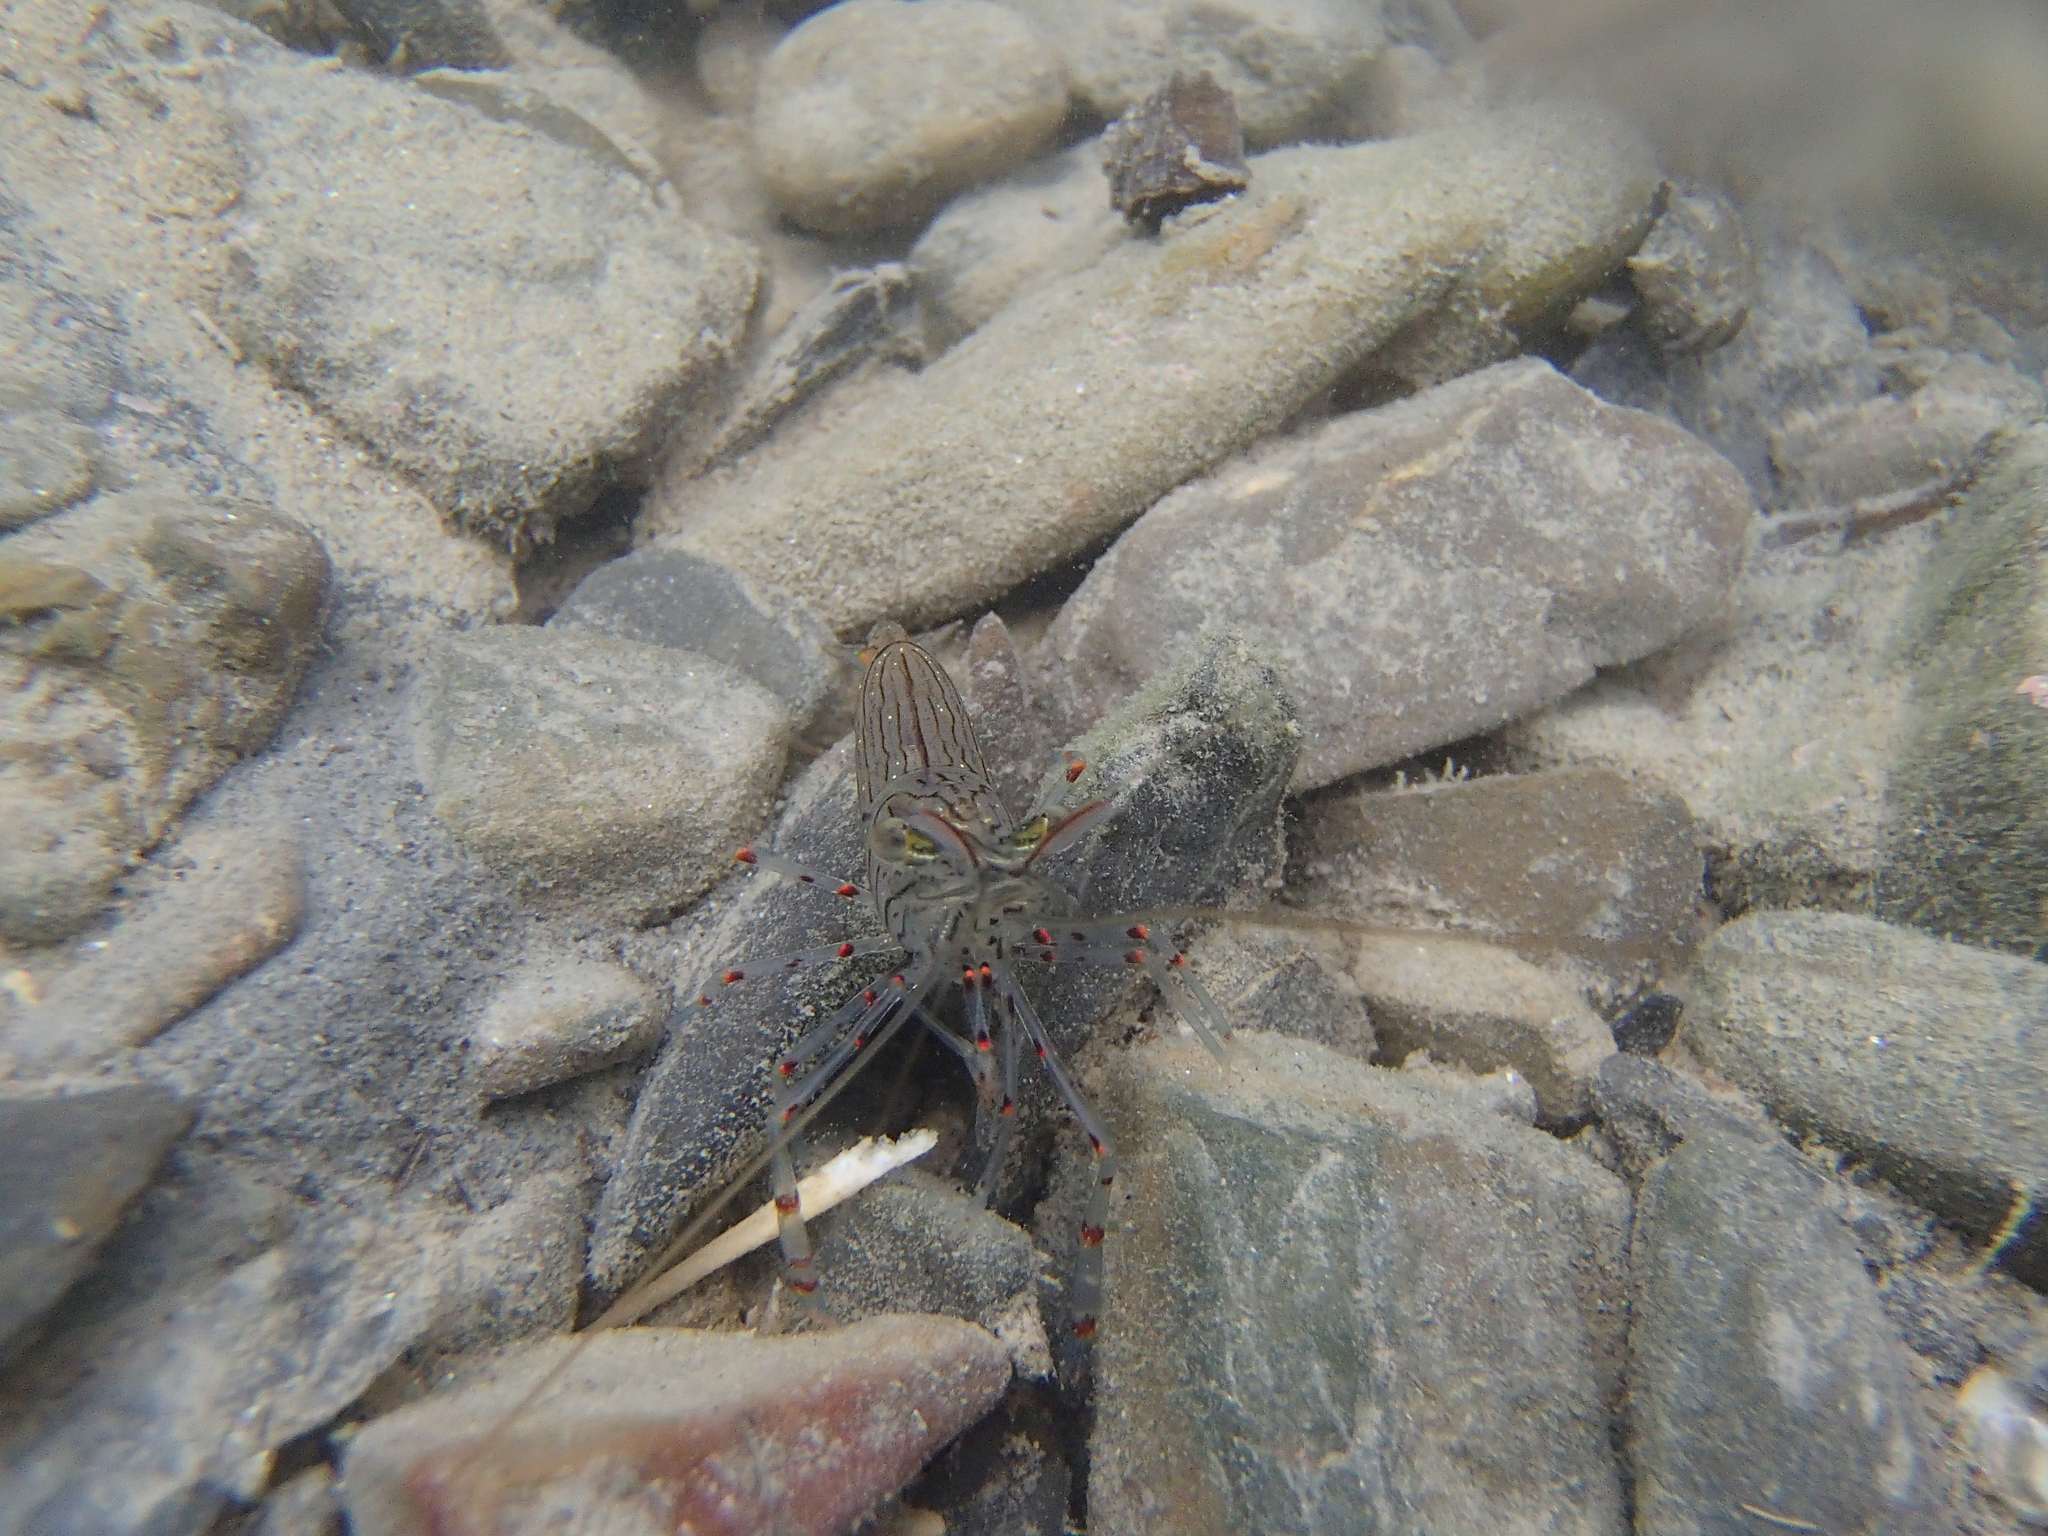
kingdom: Animalia
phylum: Arthropoda
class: Malacostraca
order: Decapoda
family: Palaemonidae
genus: Palaemon
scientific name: Palaemon affinis
